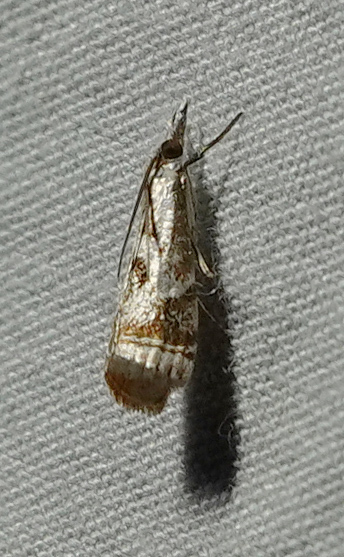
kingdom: Animalia
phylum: Arthropoda
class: Insecta
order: Lepidoptera
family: Crambidae
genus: Microcrambus
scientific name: Microcrambus elegans
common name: Elegant grass-veneer
